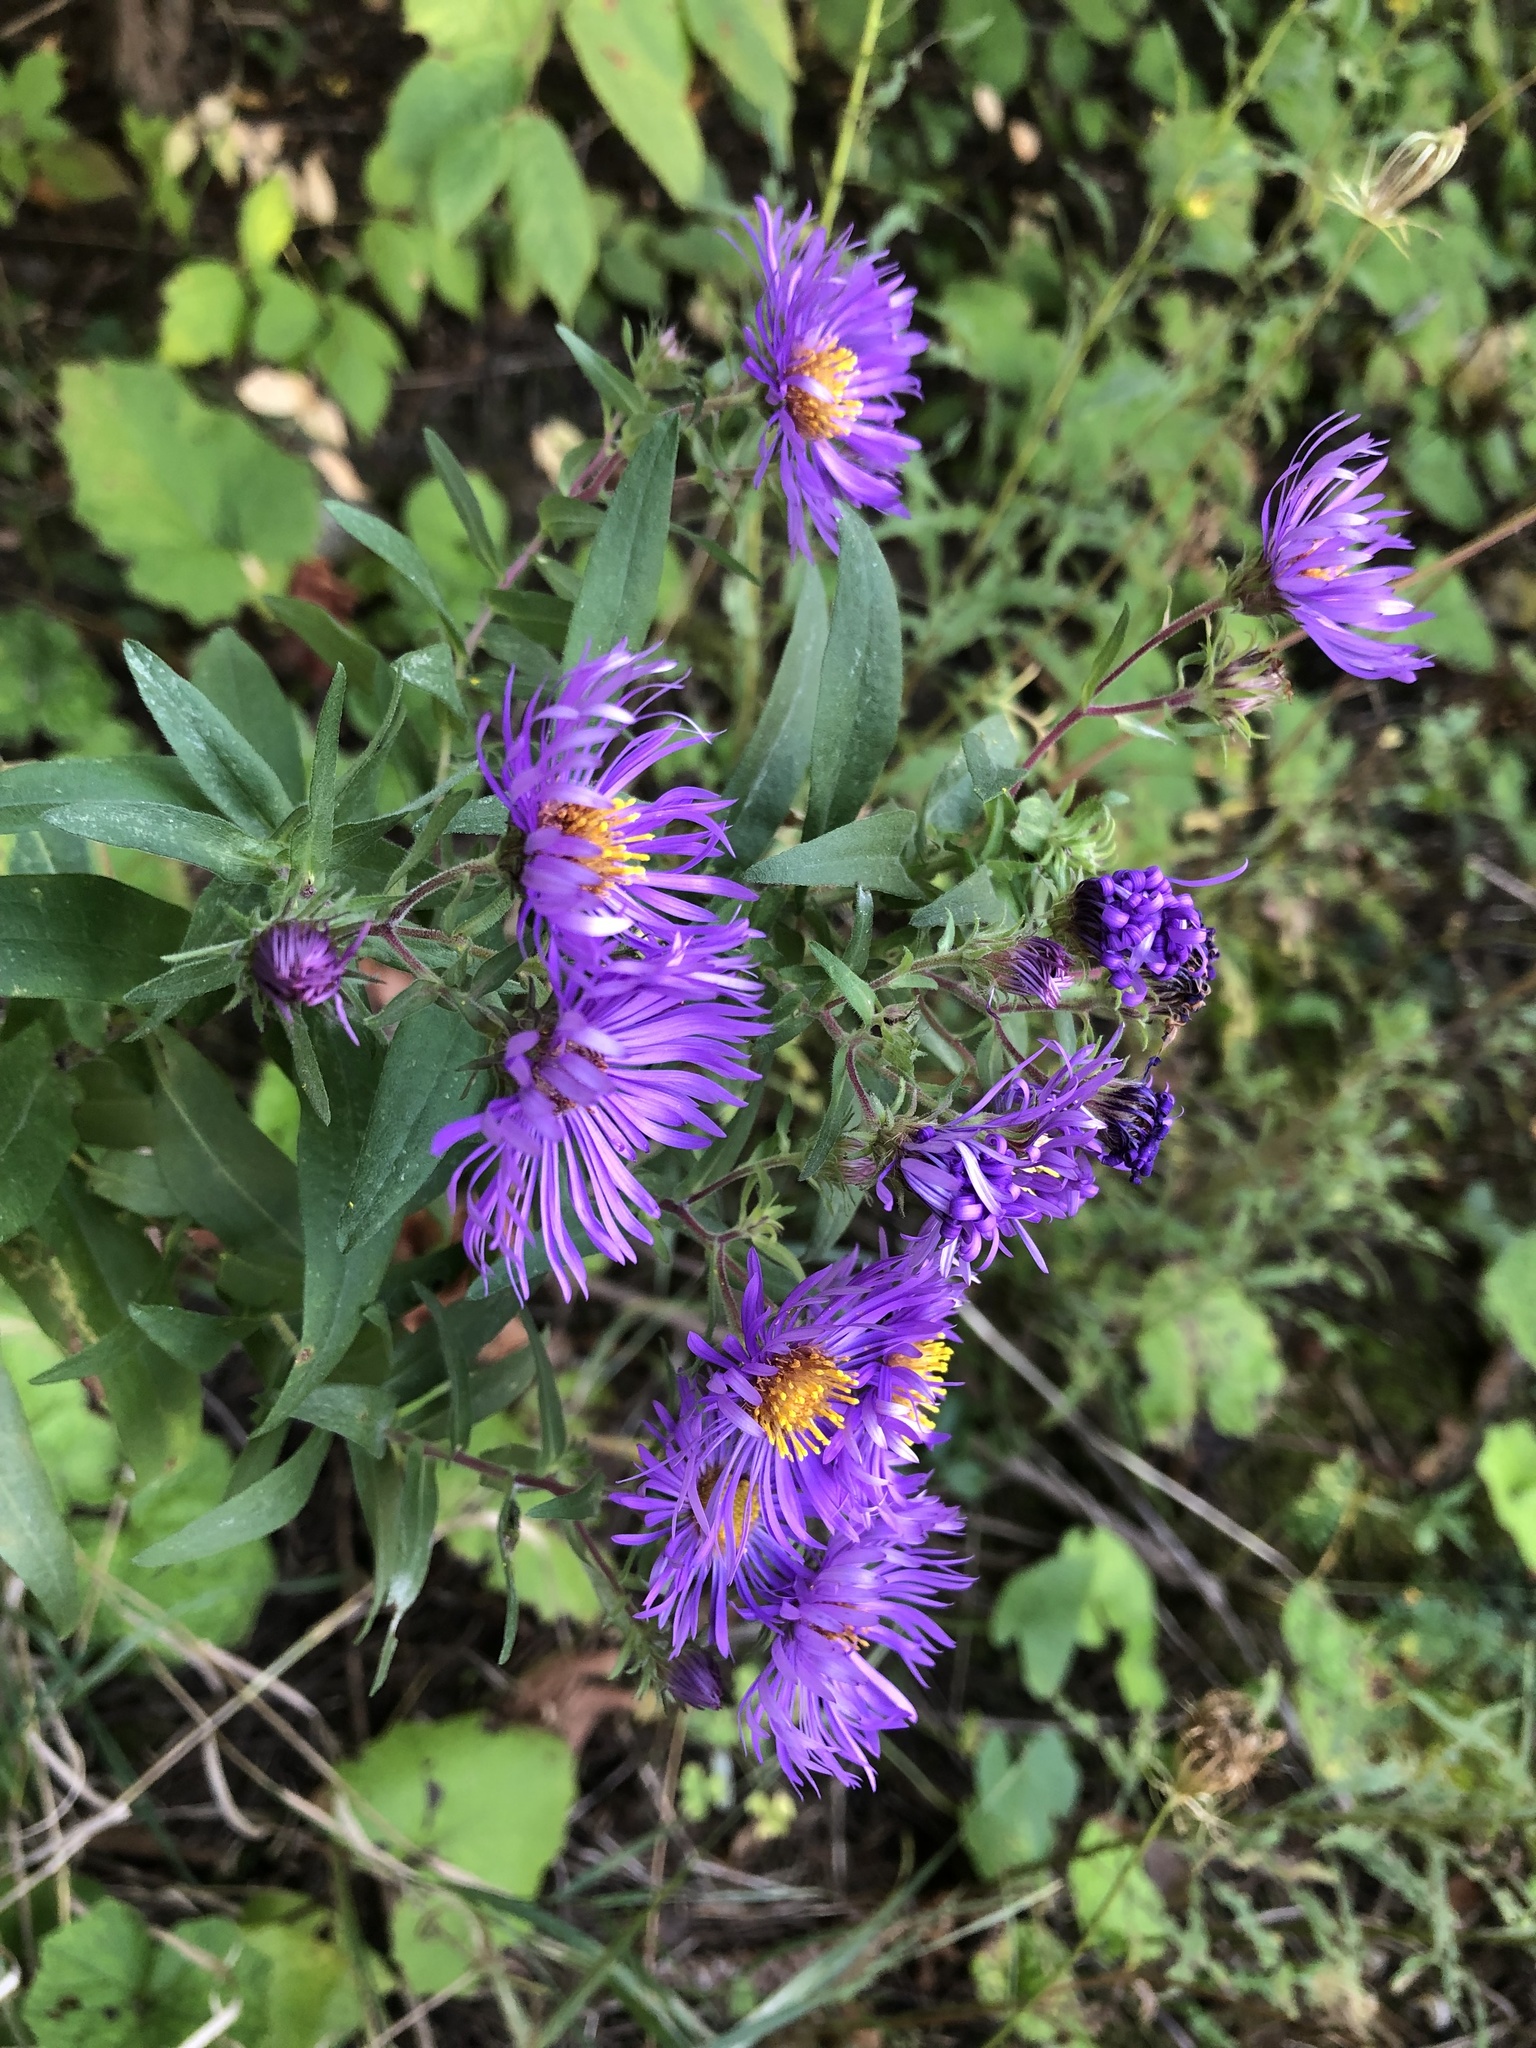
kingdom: Plantae
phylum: Tracheophyta
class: Magnoliopsida
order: Asterales
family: Asteraceae
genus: Symphyotrichum
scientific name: Symphyotrichum novae-angliae
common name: Michaelmas daisy
